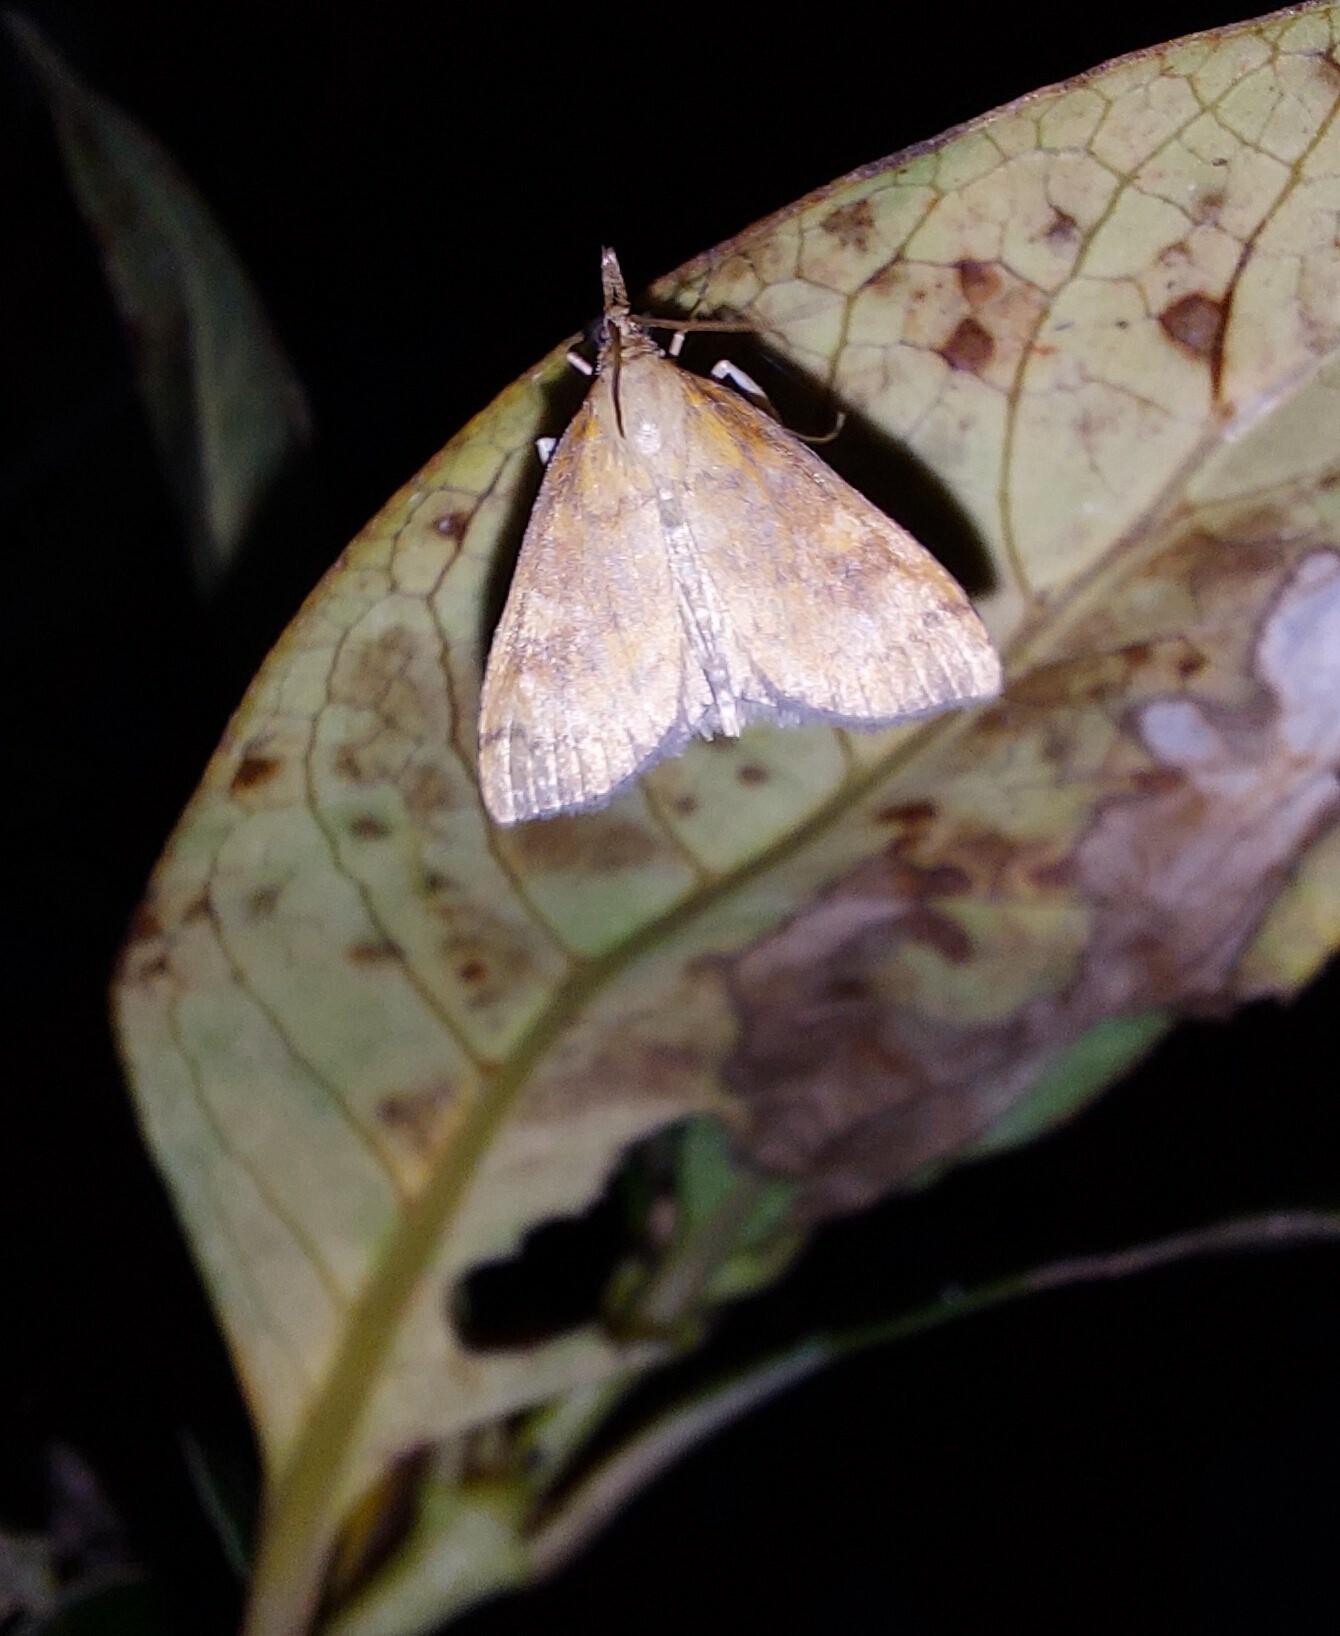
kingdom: Animalia
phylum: Arthropoda
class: Insecta
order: Lepidoptera
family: Crambidae
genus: Udea
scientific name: Udea Mnesictena flavidalis
